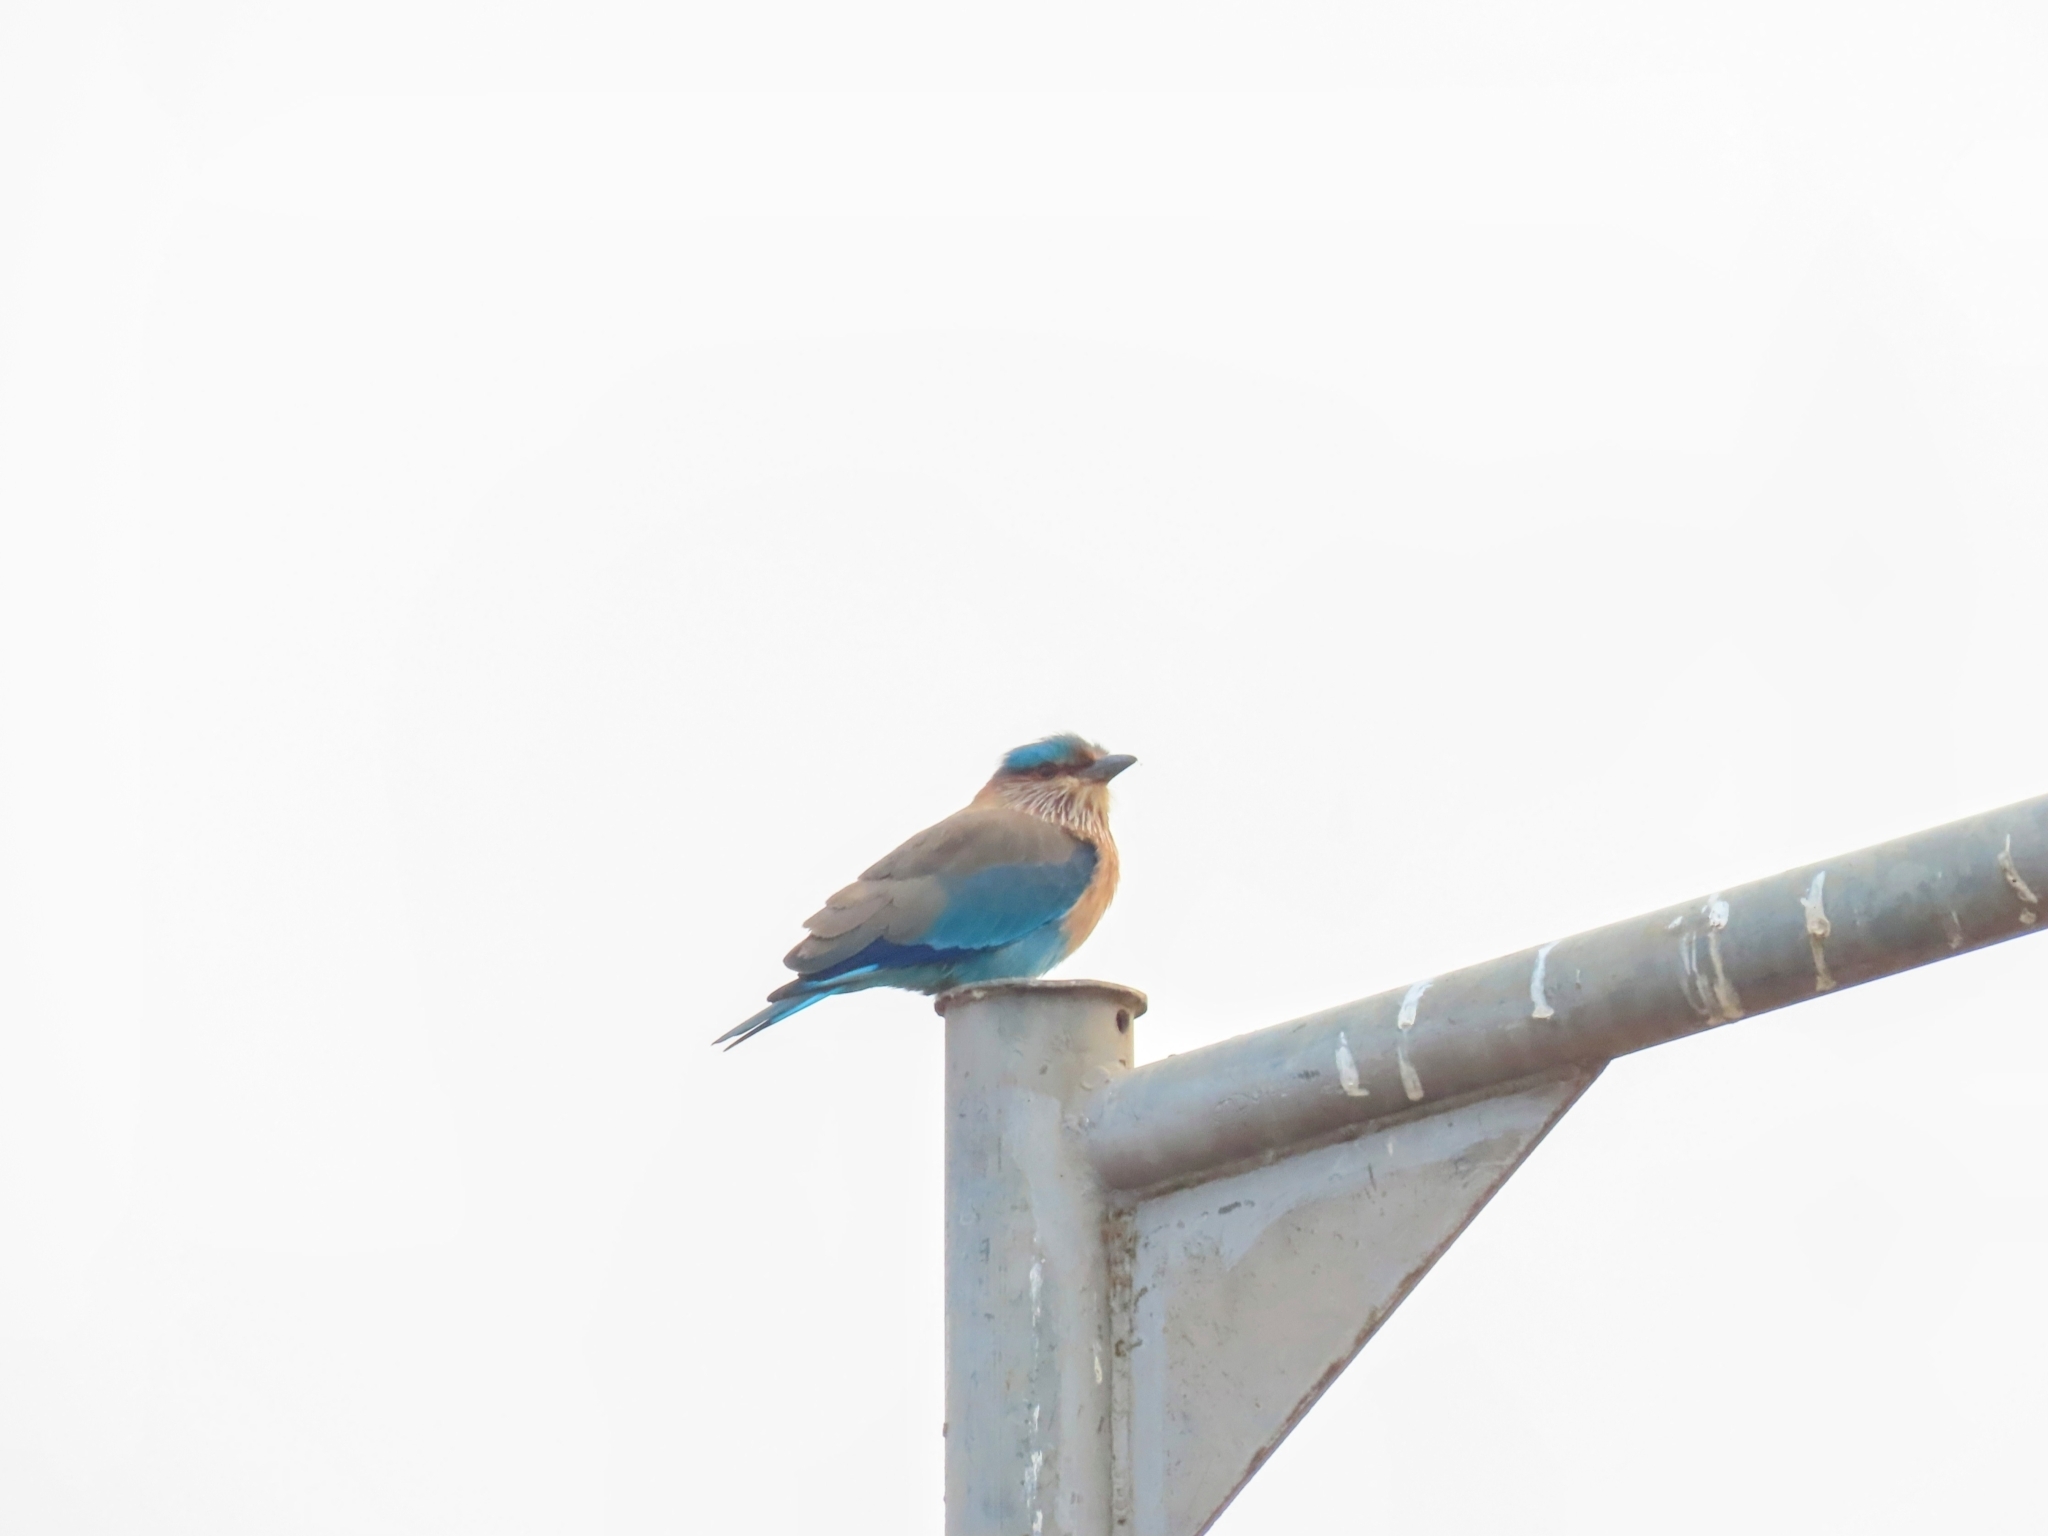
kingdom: Animalia
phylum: Chordata
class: Aves
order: Coraciiformes
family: Coraciidae
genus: Coracias
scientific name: Coracias benghalensis
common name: Indian roller
